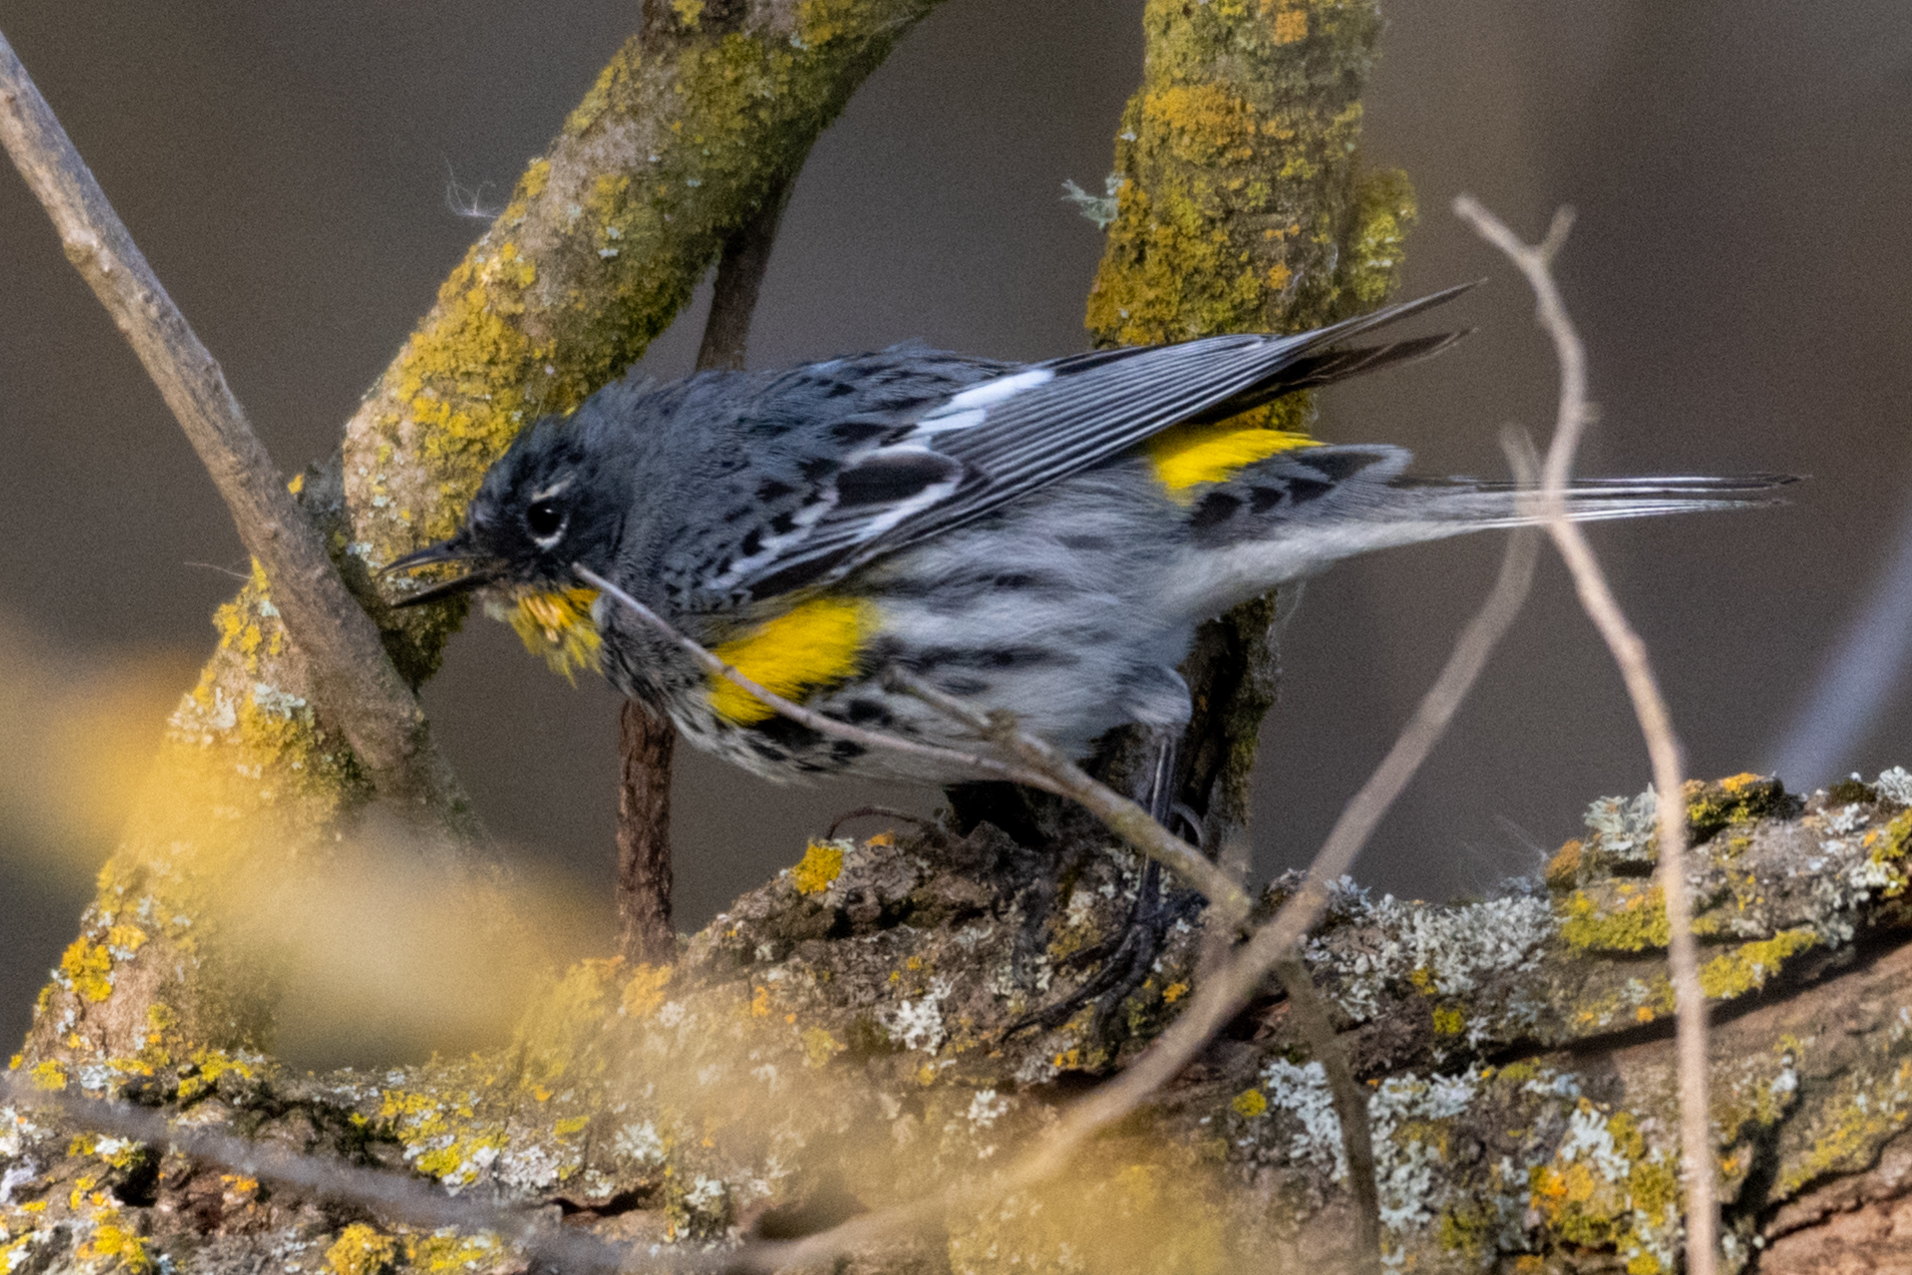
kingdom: Animalia
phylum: Chordata
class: Aves
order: Passeriformes
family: Parulidae
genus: Setophaga
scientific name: Setophaga auduboni
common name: Audubon's warbler
